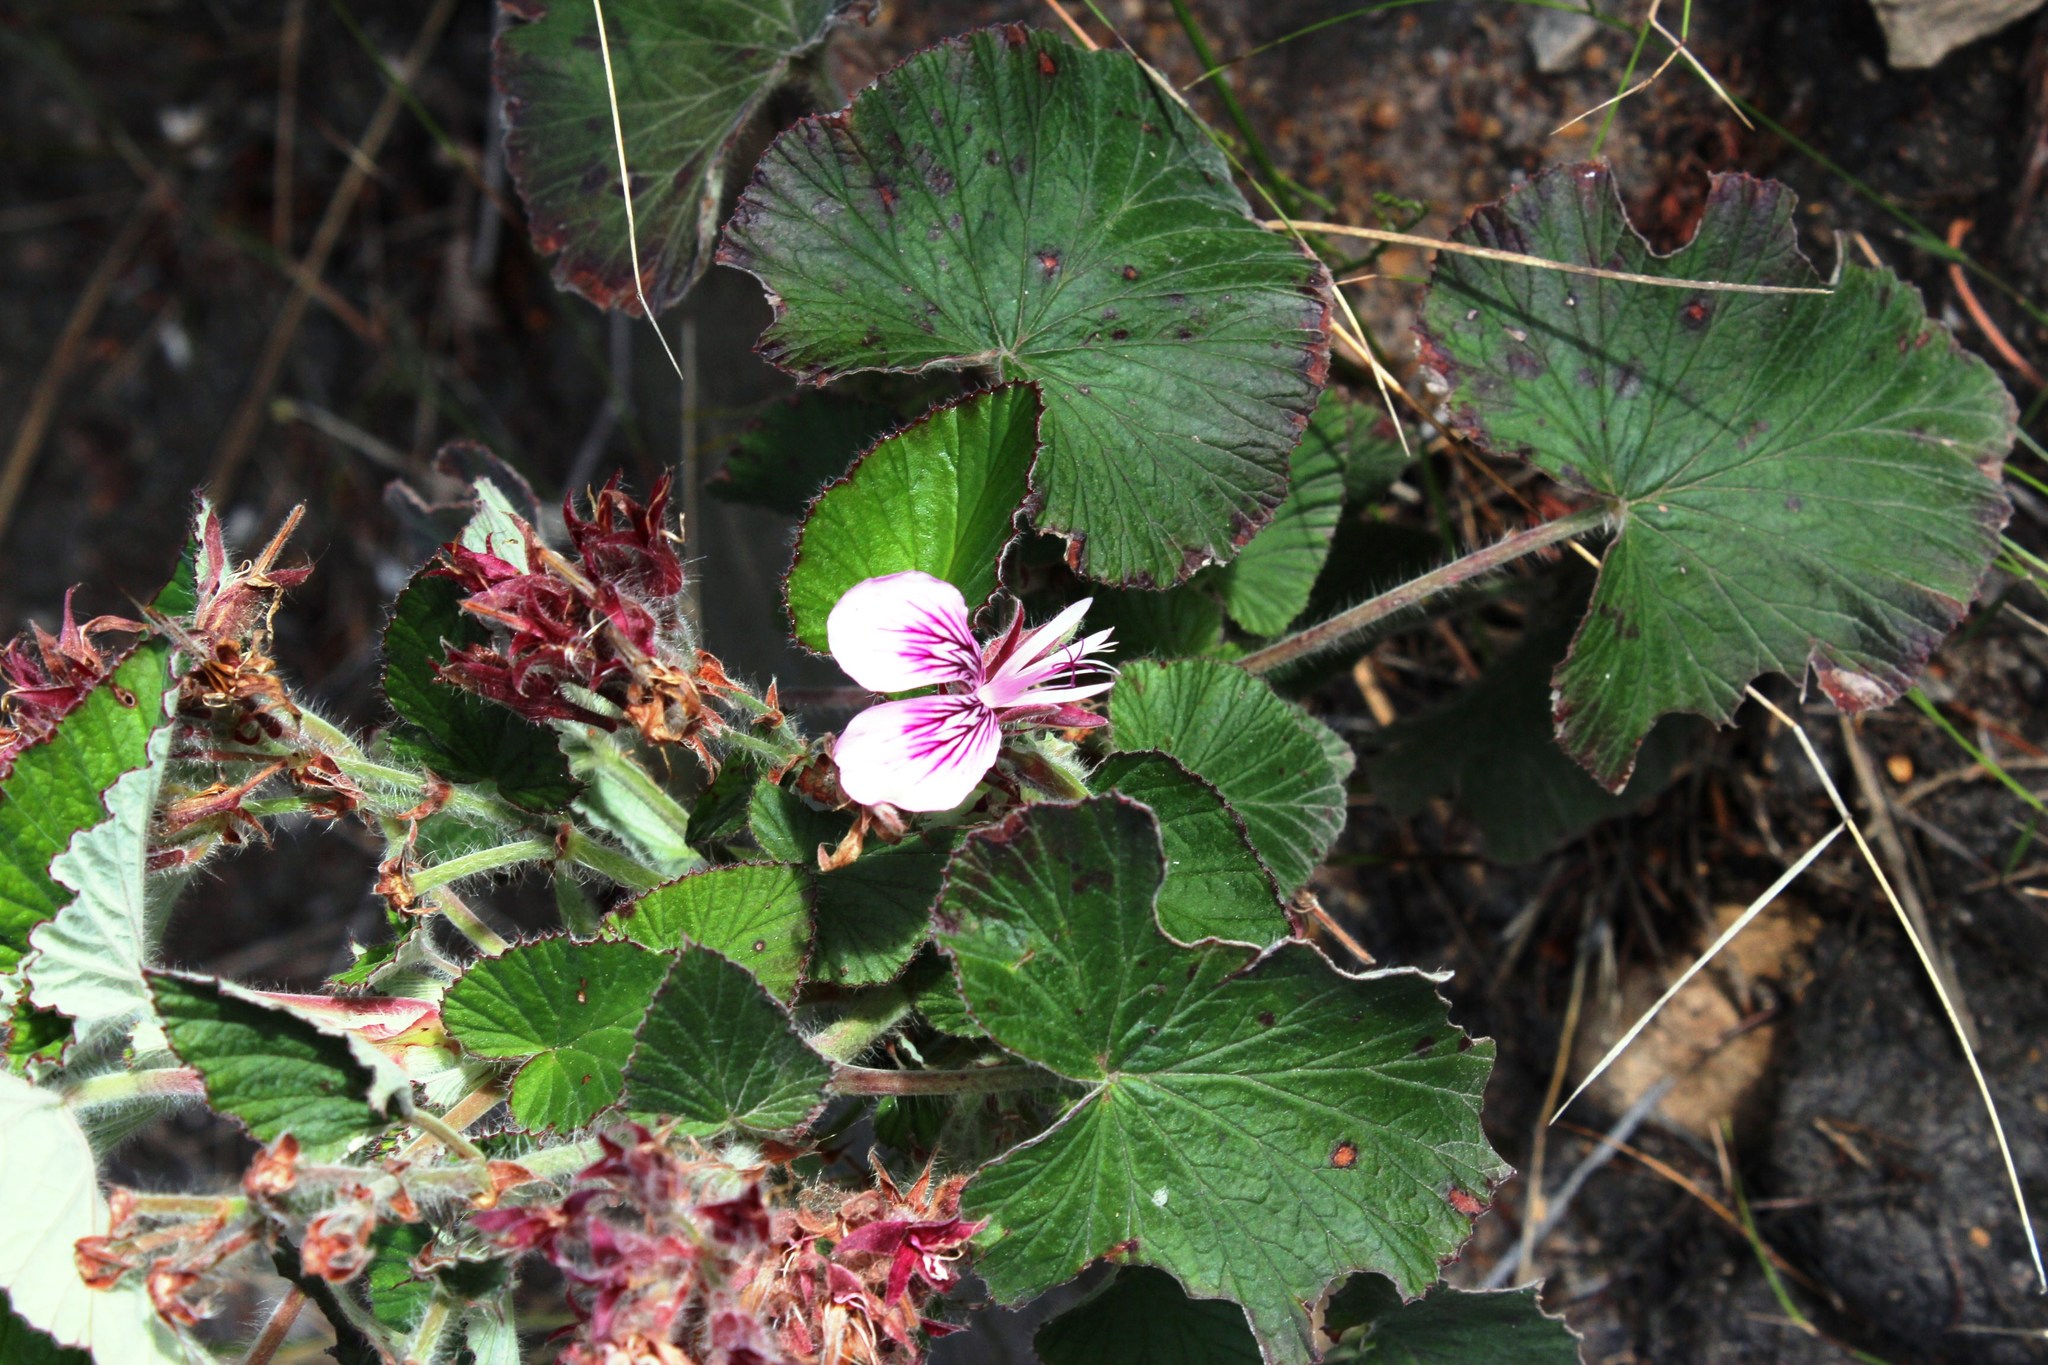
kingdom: Plantae
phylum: Tracheophyta
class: Magnoliopsida
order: Geraniales
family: Geraniaceae
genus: Pelargonium
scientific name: Pelargonium cordifolium
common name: Heart-leaf pelargonium
